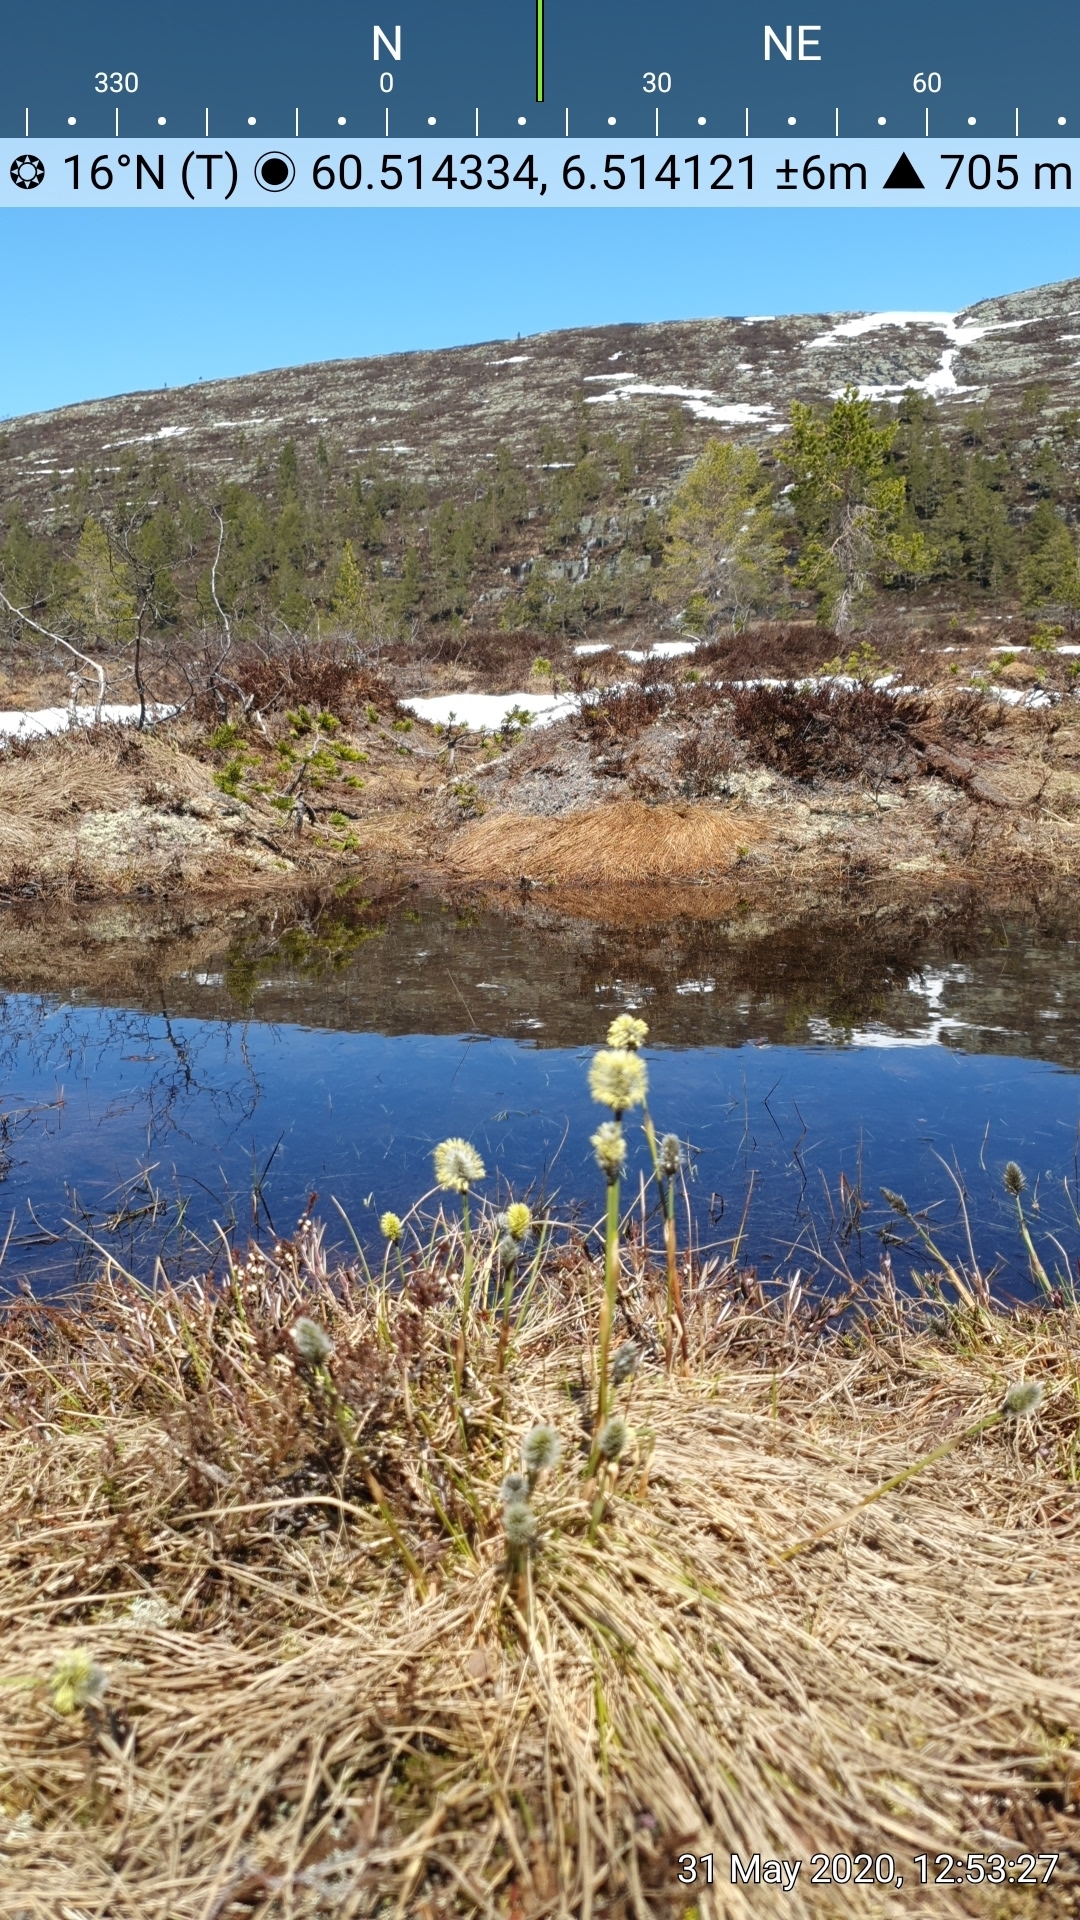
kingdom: Plantae
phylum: Tracheophyta
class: Liliopsida
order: Poales
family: Cyperaceae
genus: Eriophorum
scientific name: Eriophorum vaginatum
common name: Hare's-tail cottongrass
